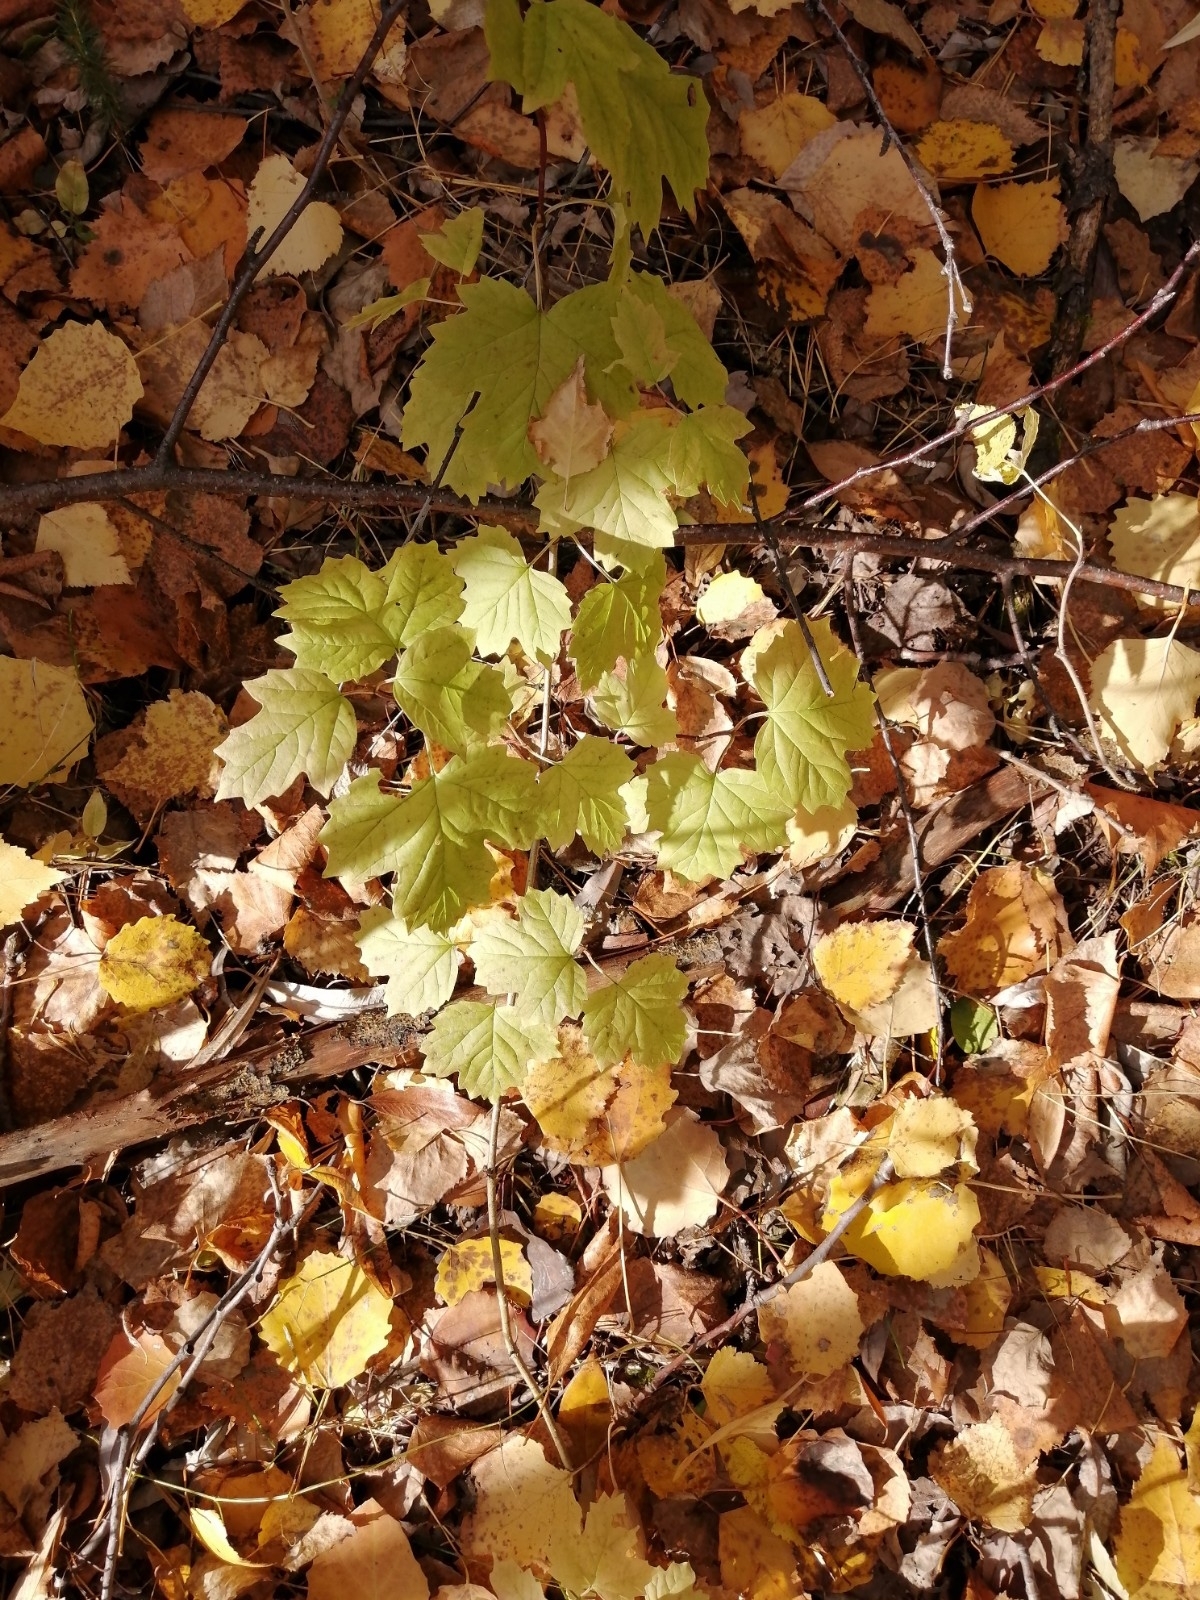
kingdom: Plantae
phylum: Tracheophyta
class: Magnoliopsida
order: Dipsacales
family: Viburnaceae
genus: Viburnum
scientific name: Viburnum opulus
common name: Guelder-rose
